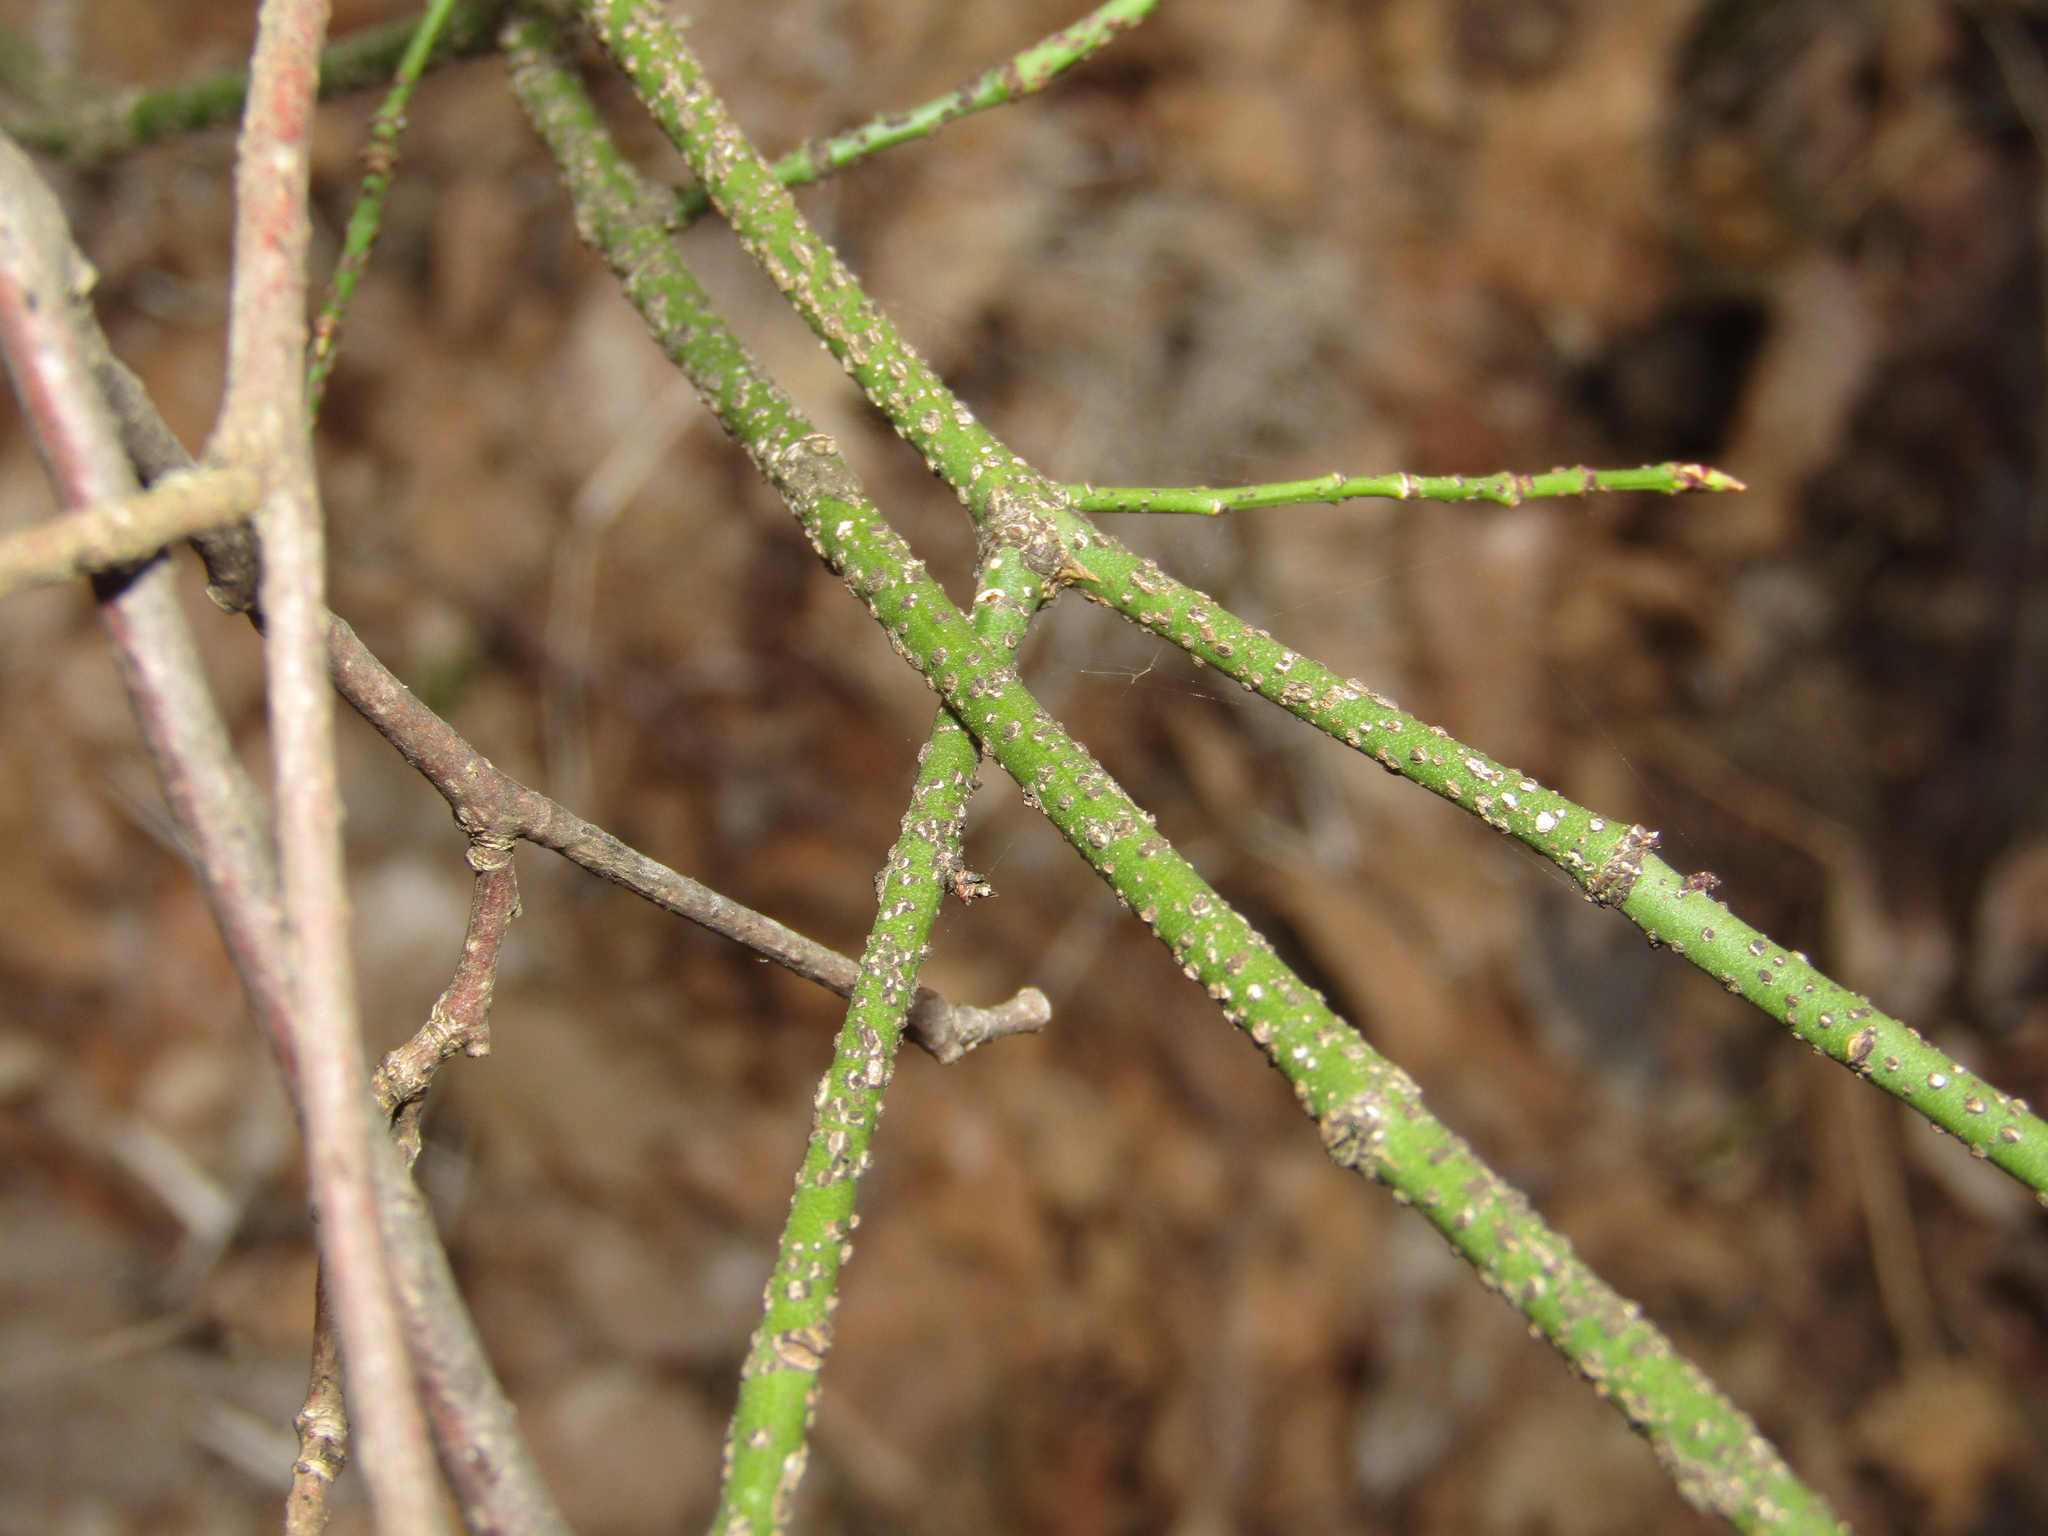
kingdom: Plantae
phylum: Tracheophyta
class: Magnoliopsida
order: Celastrales
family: Celastraceae
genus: Euonymus
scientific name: Euonymus verrucosus
